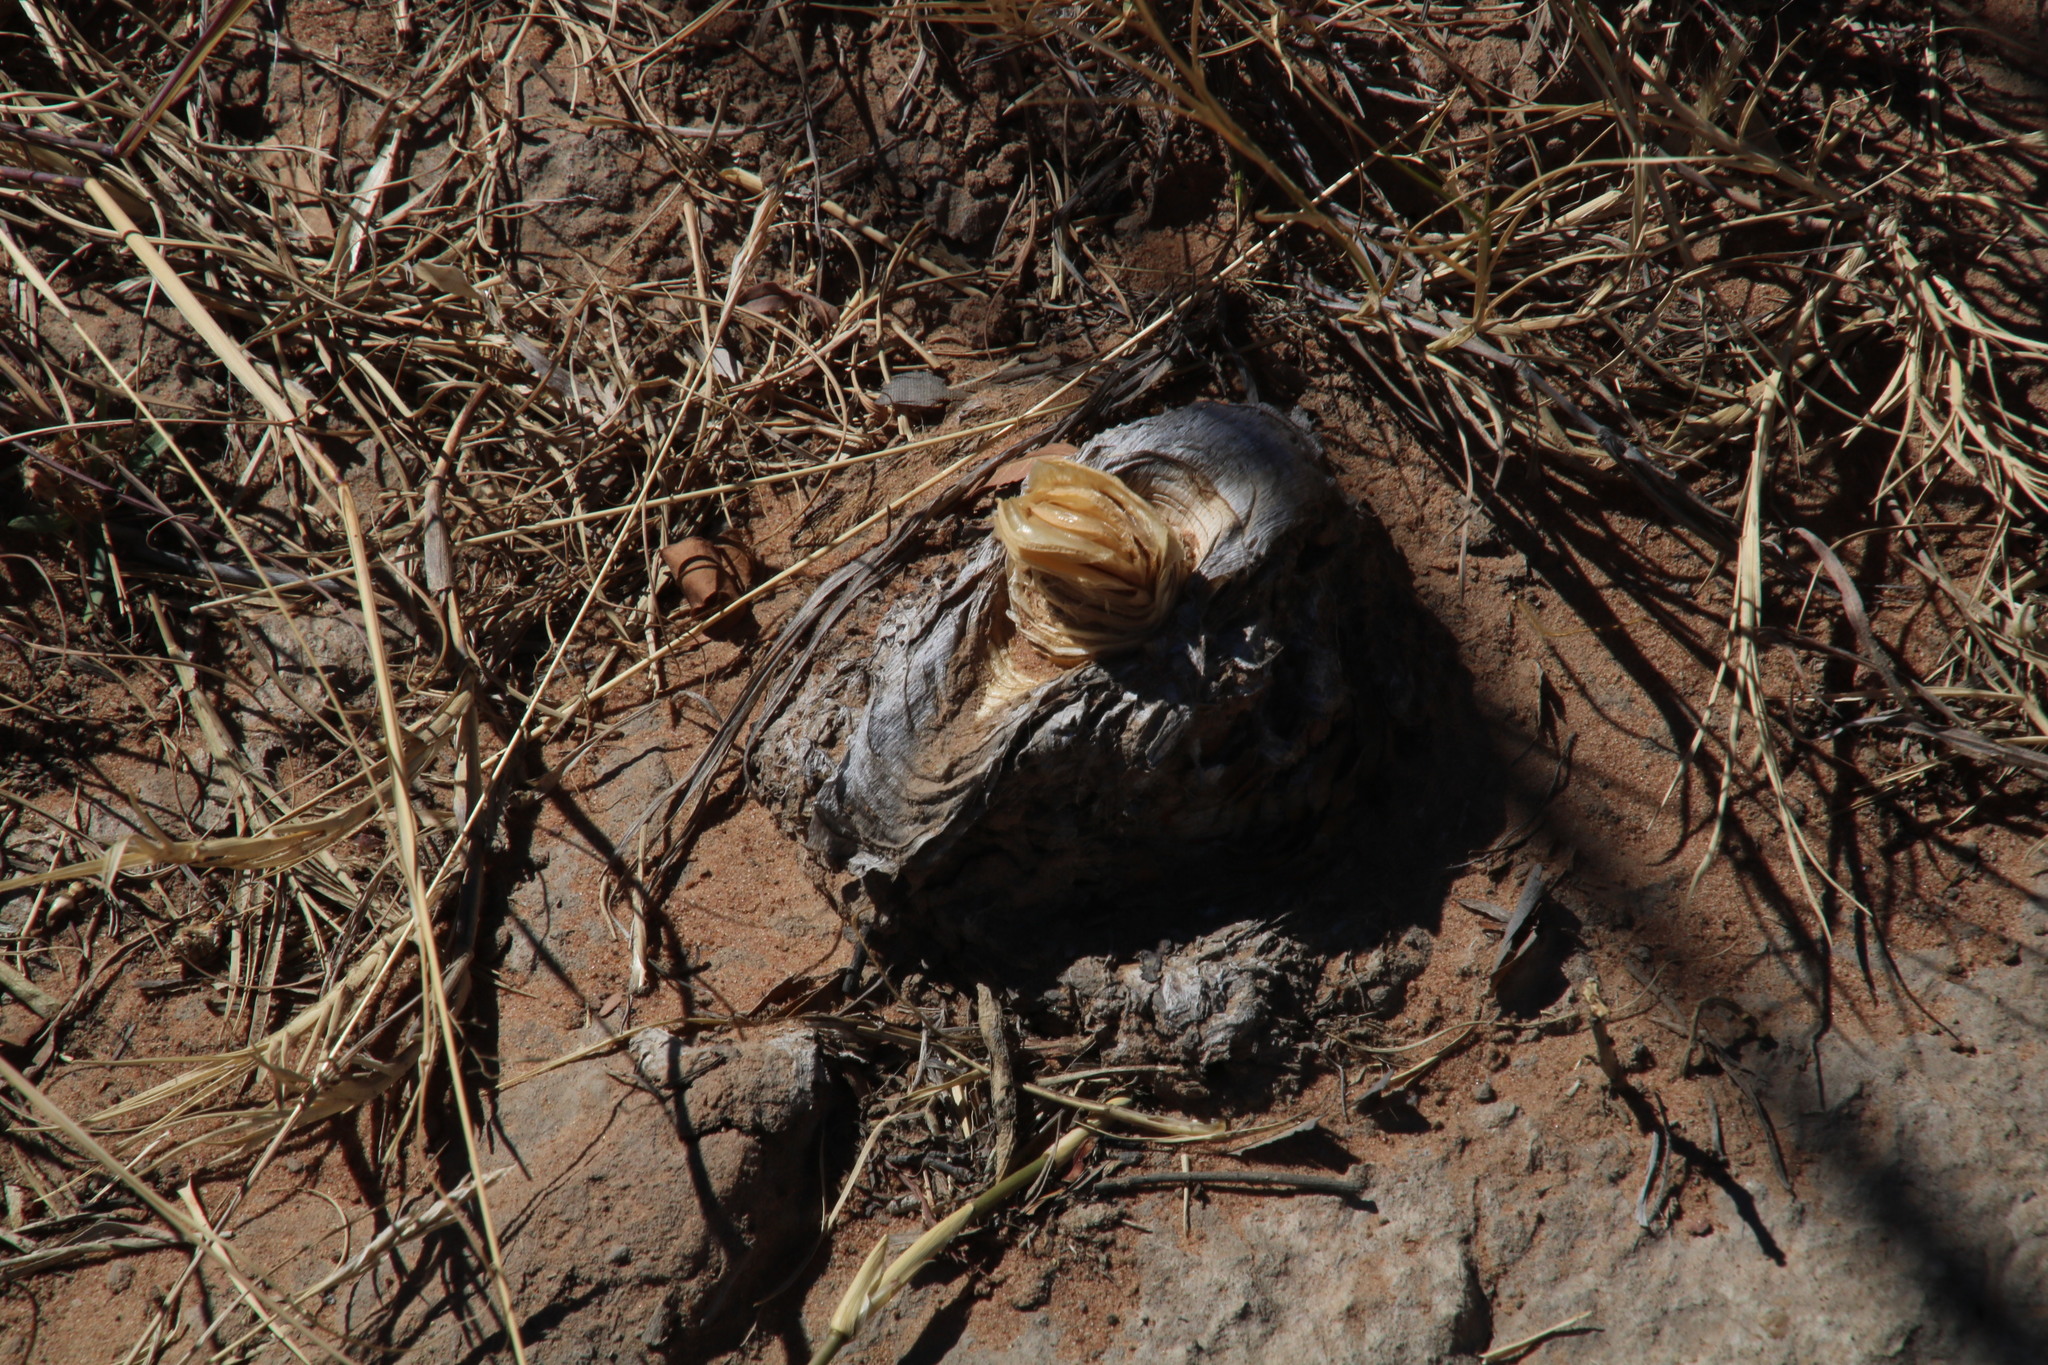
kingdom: Plantae
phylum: Tracheophyta
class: Liliopsida
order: Asparagales
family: Amaryllidaceae
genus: Boophone
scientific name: Boophone disticha
